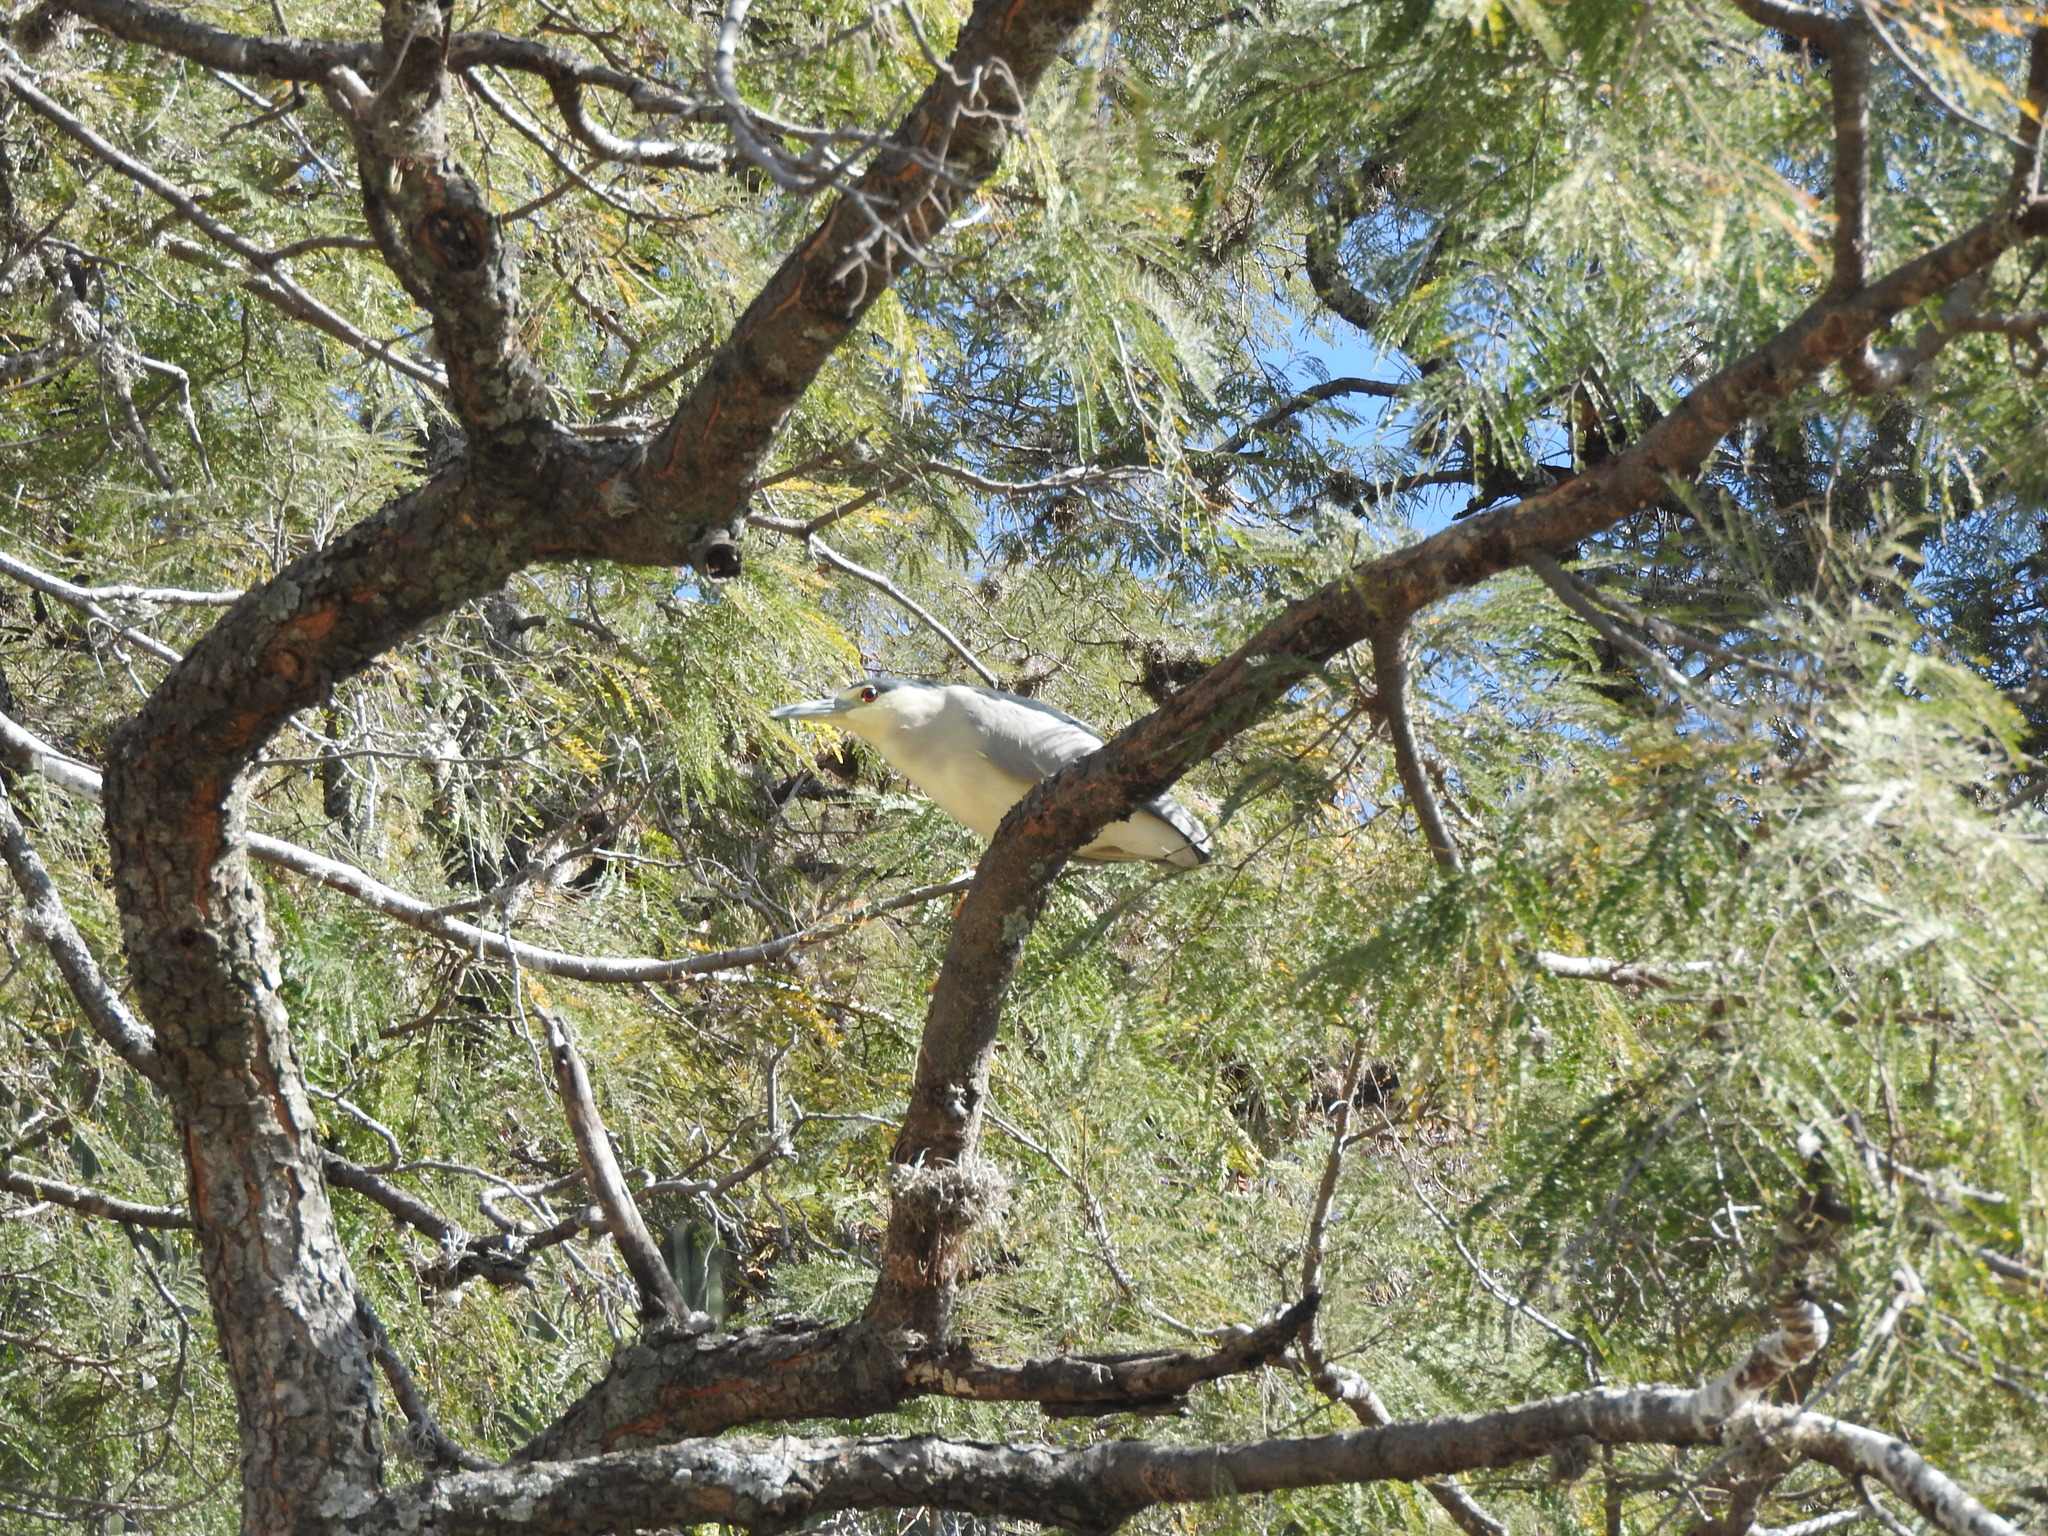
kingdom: Animalia
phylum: Chordata
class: Aves
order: Pelecaniformes
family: Ardeidae
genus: Nycticorax
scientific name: Nycticorax nycticorax
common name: Black-crowned night heron
